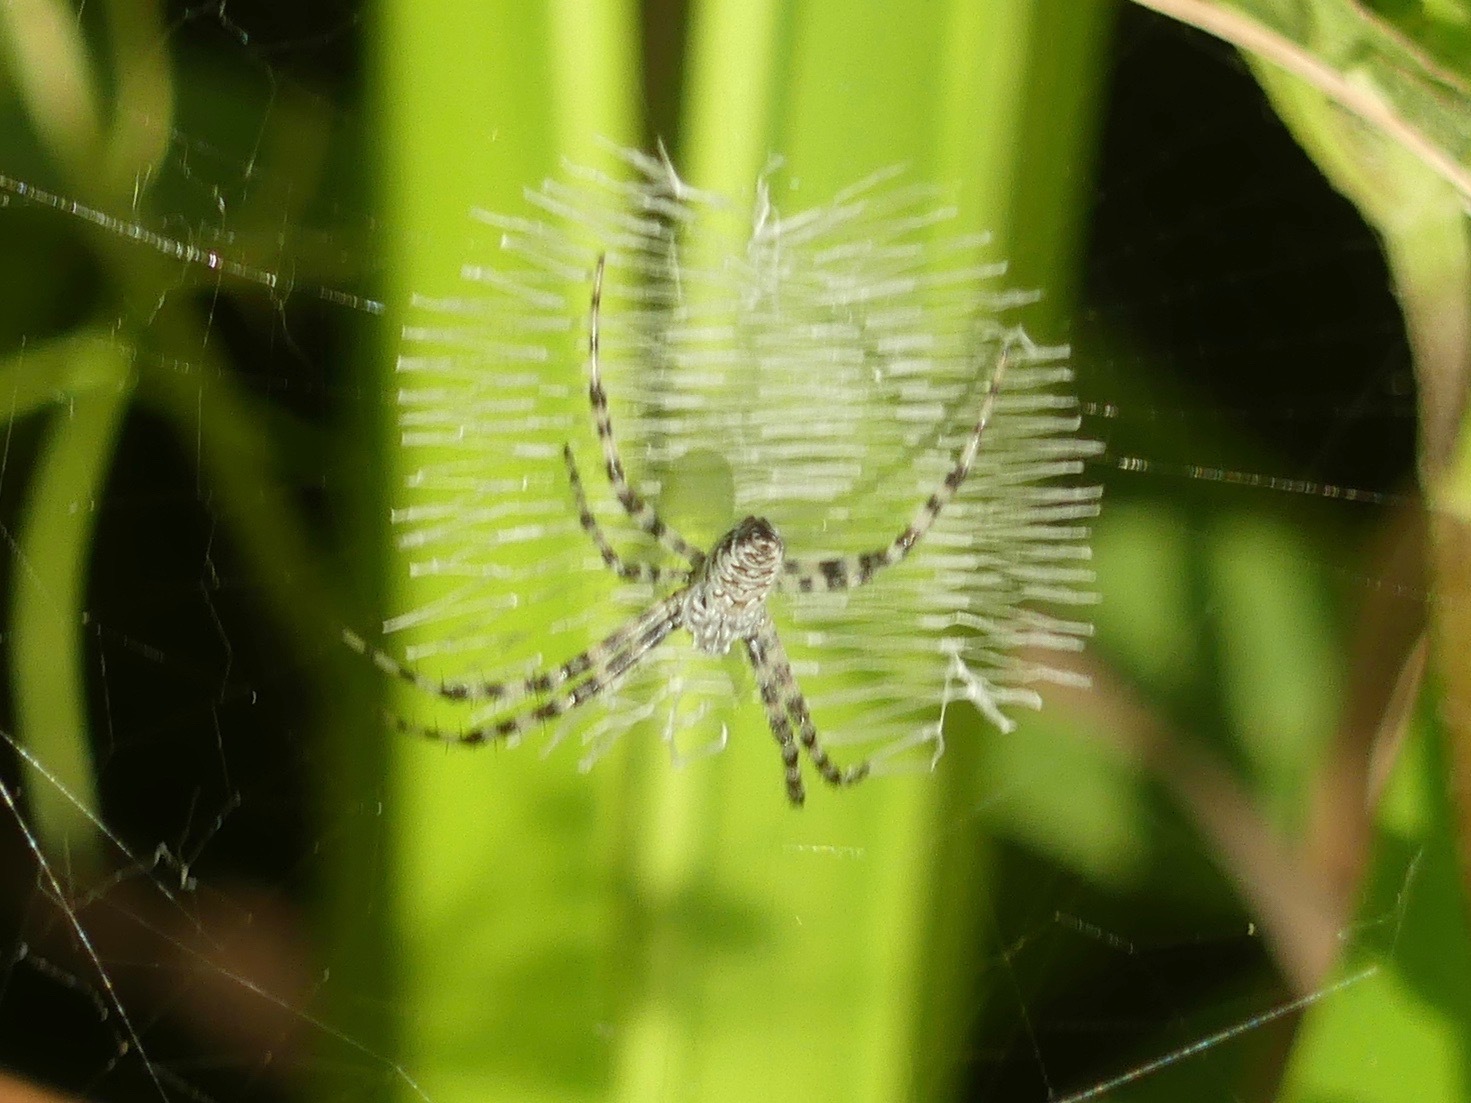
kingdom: Animalia
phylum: Arthropoda
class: Arachnida
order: Araneae
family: Araneidae
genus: Argiope
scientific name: Argiope aurantia
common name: Orb weavers
